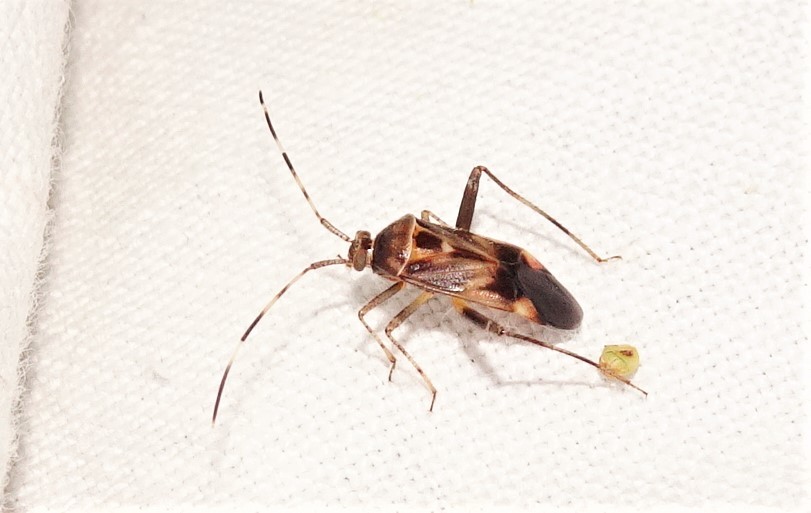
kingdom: Animalia
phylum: Arthropoda
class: Insecta
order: Hemiptera
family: Miridae
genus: Megacoelum
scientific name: Megacoelum suffusum
